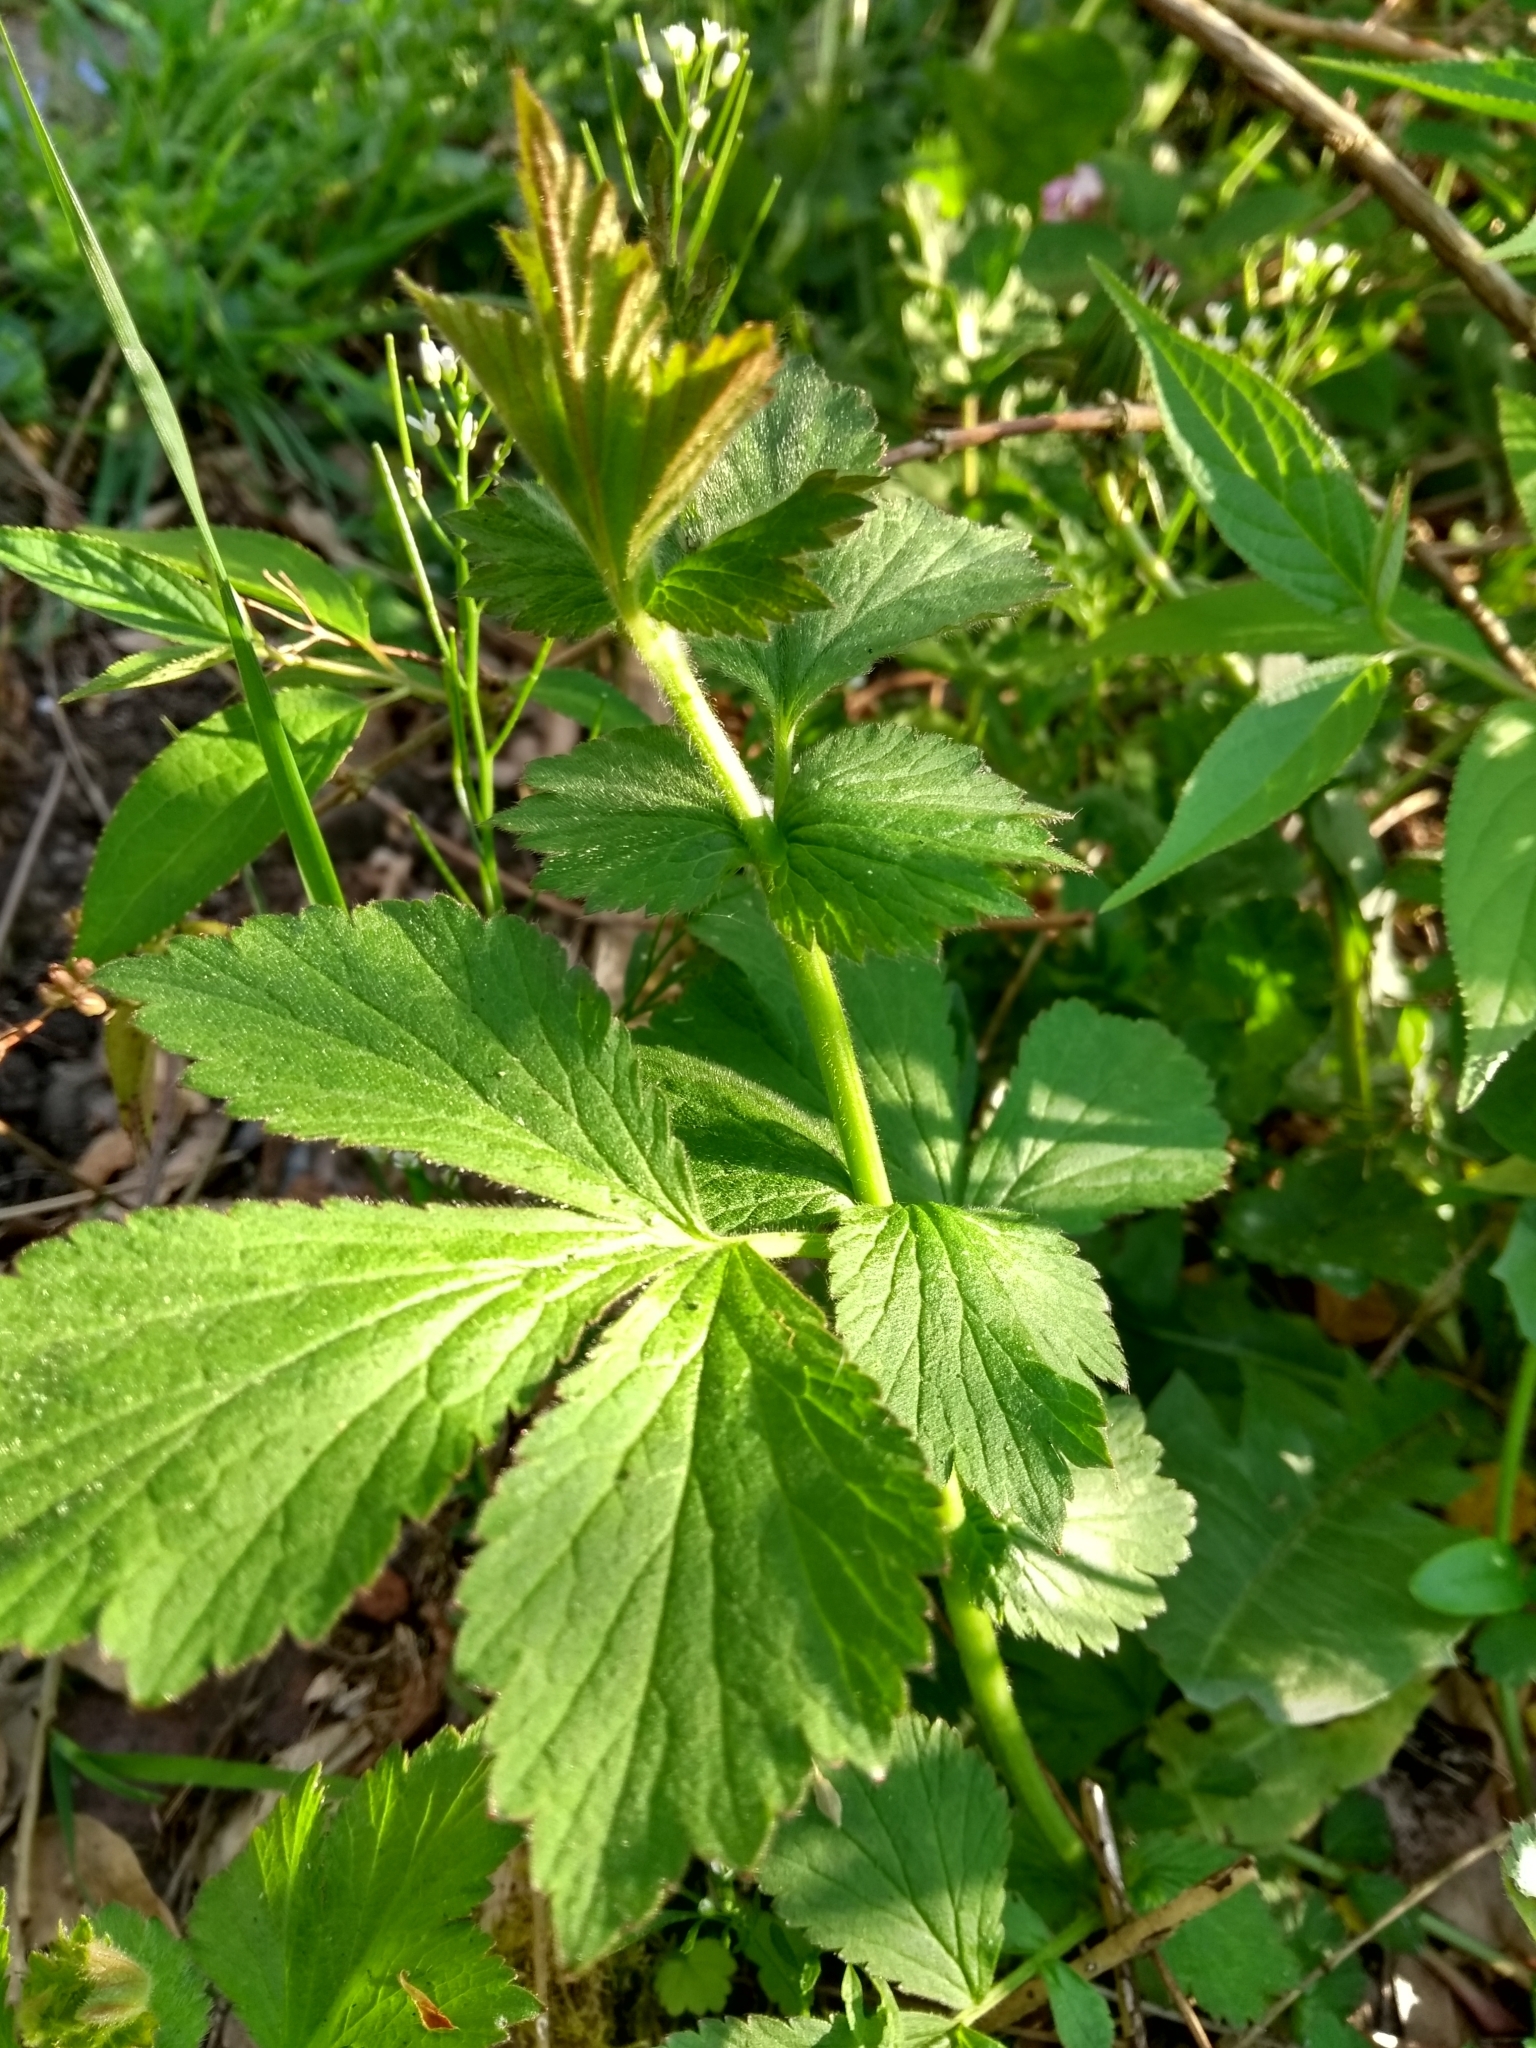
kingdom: Plantae
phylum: Tracheophyta
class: Magnoliopsida
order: Rosales
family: Rosaceae
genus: Geum
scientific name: Geum urbanum
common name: Wood avens
